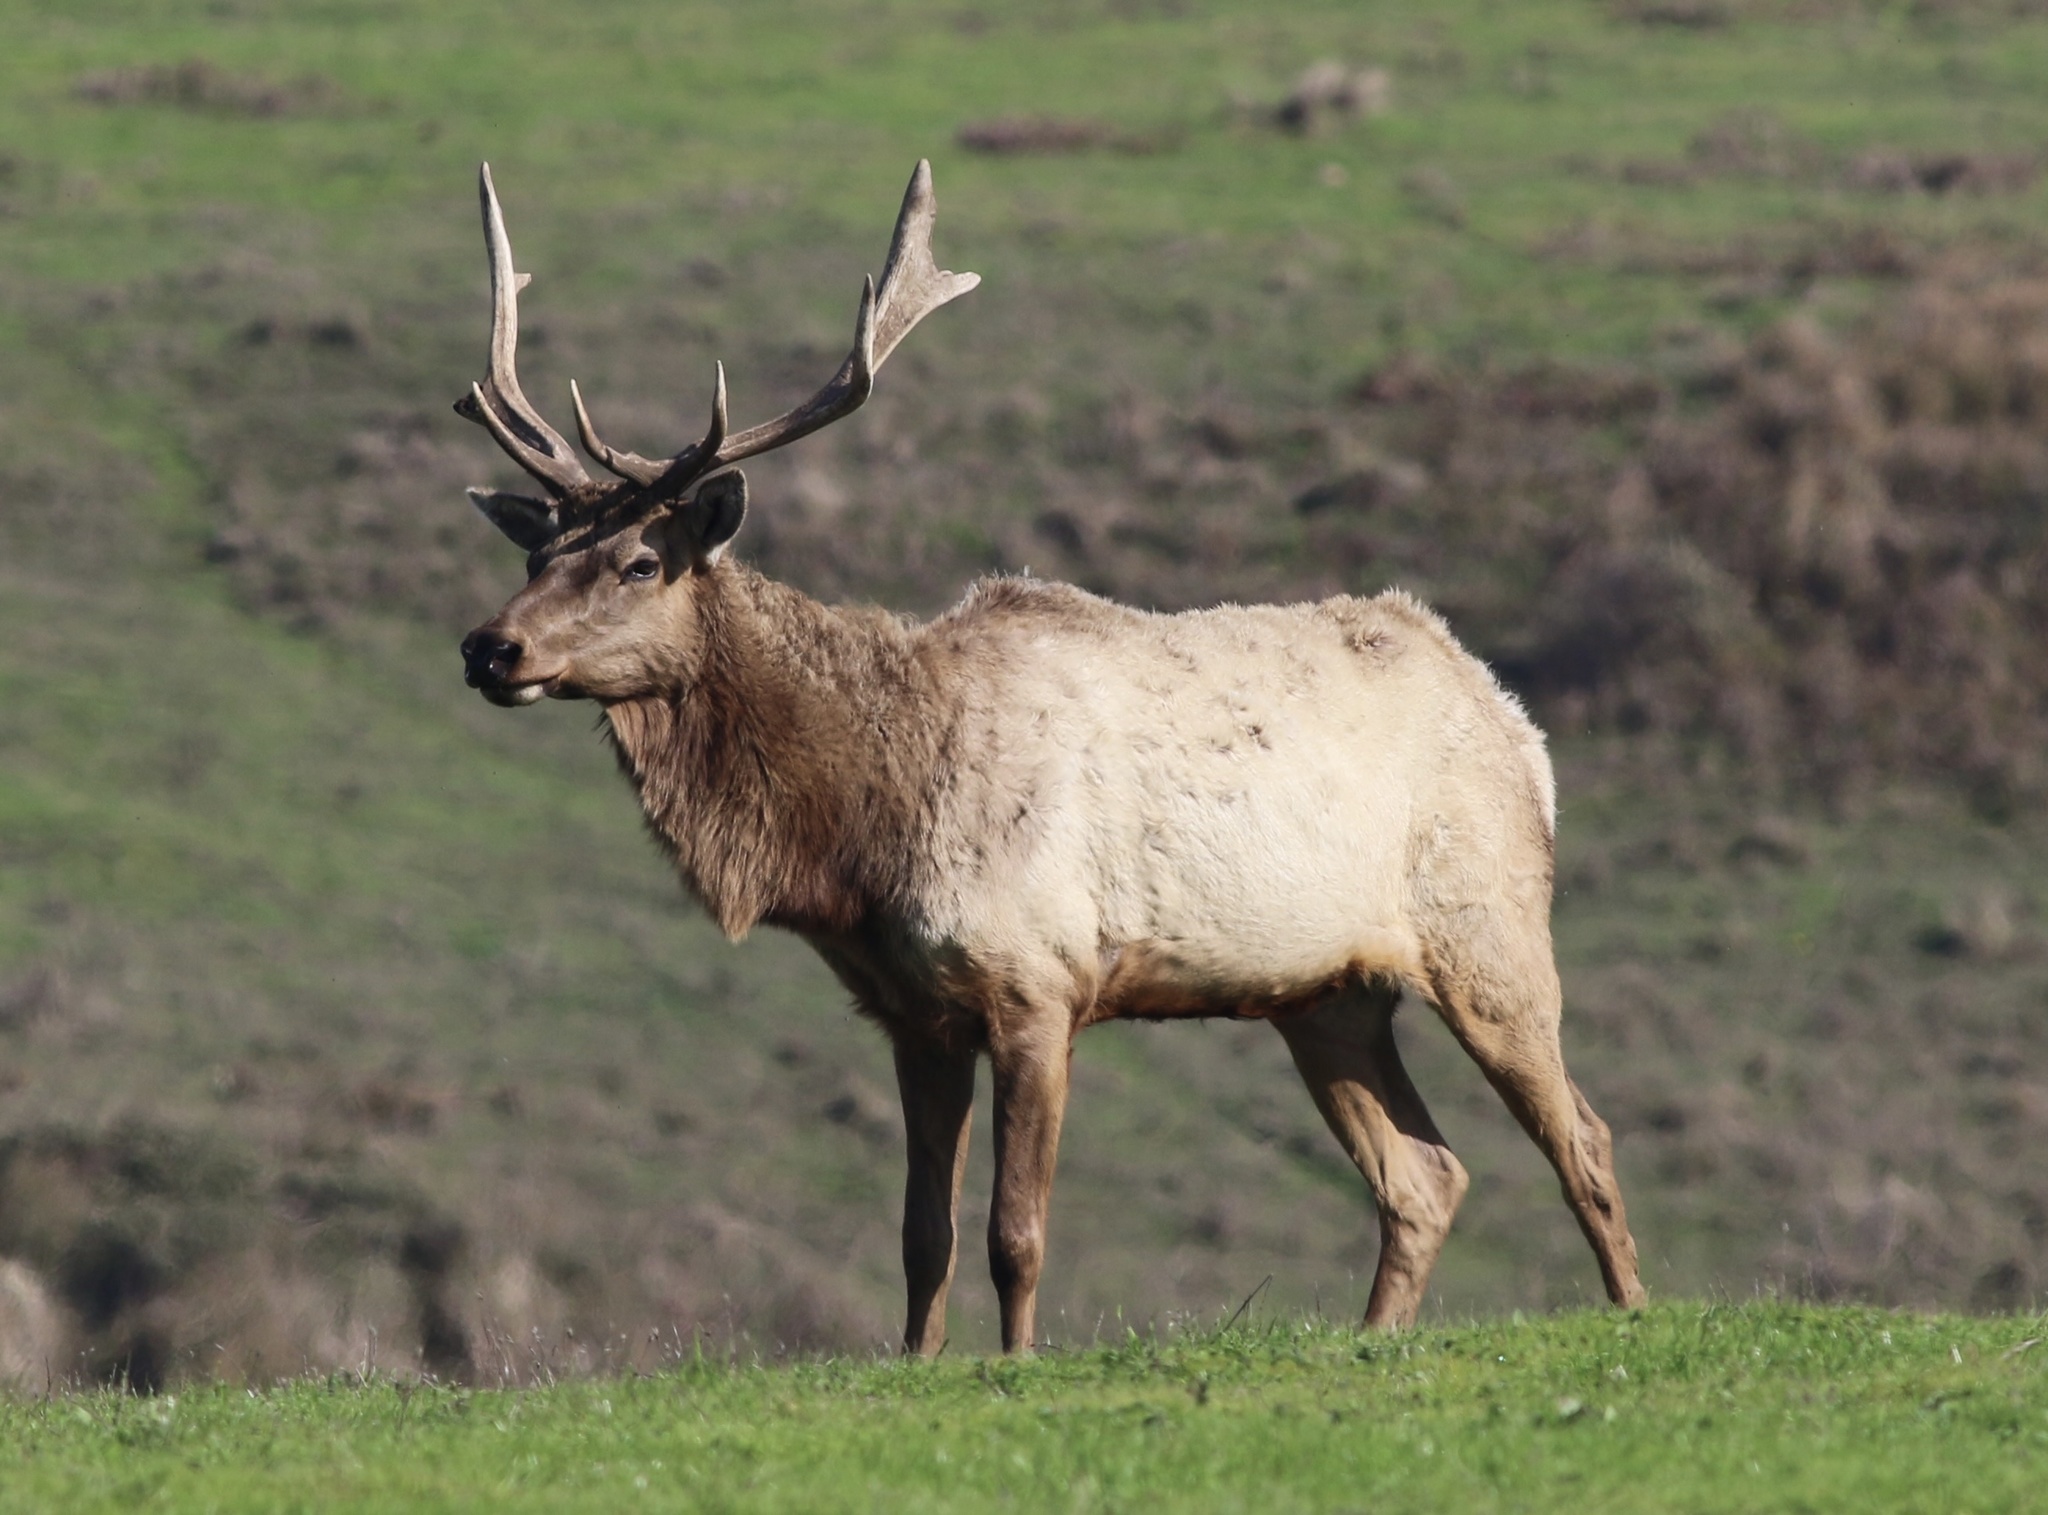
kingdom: Animalia
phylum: Chordata
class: Mammalia
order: Artiodactyla
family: Cervidae
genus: Cervus
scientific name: Cervus elaphus
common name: Red deer
